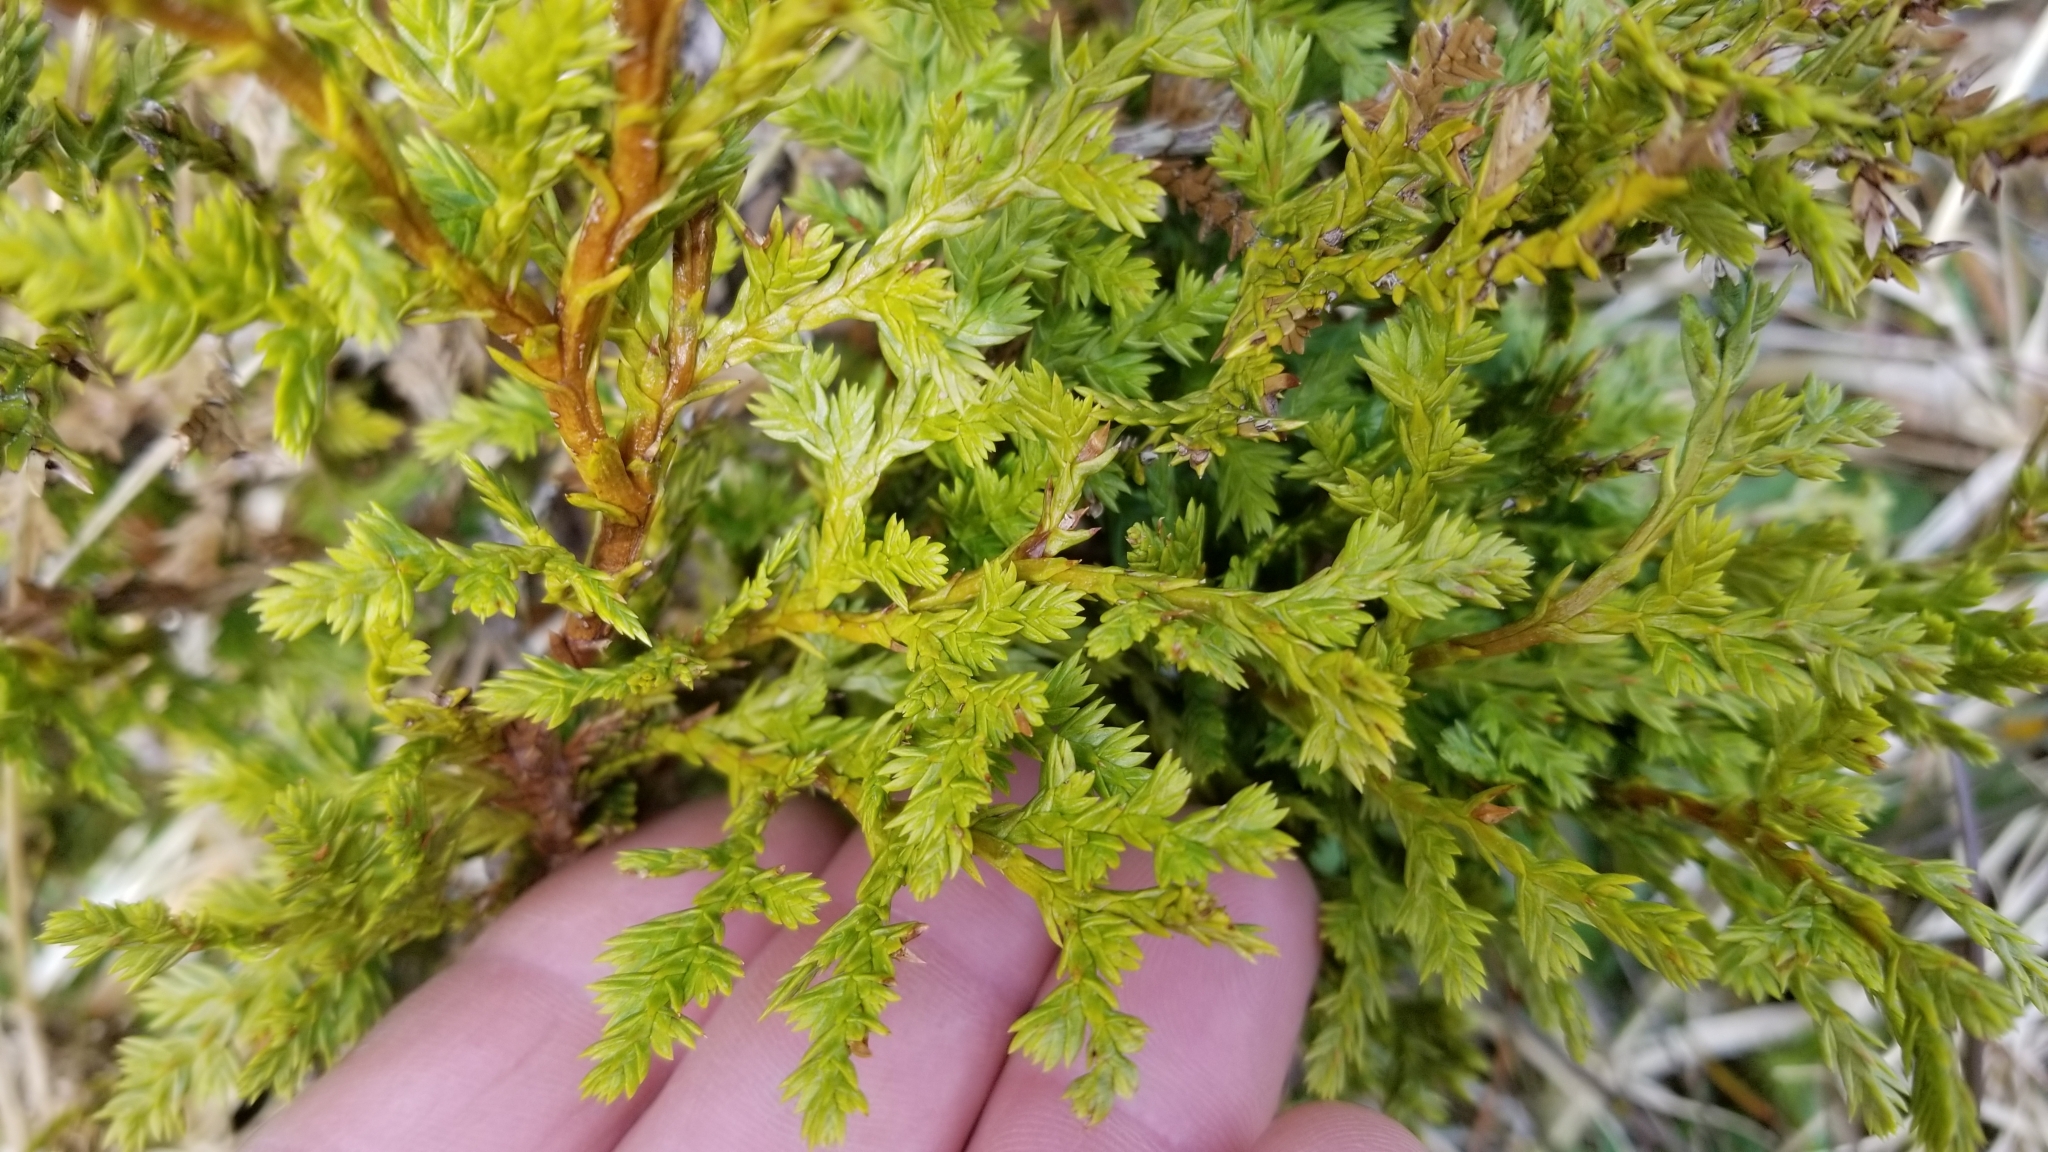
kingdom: Plantae
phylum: Tracheophyta
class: Pinopsida
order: Pinales
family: Cupressaceae
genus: Libocedrus
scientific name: Libocedrus bidwillii
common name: Cedar
